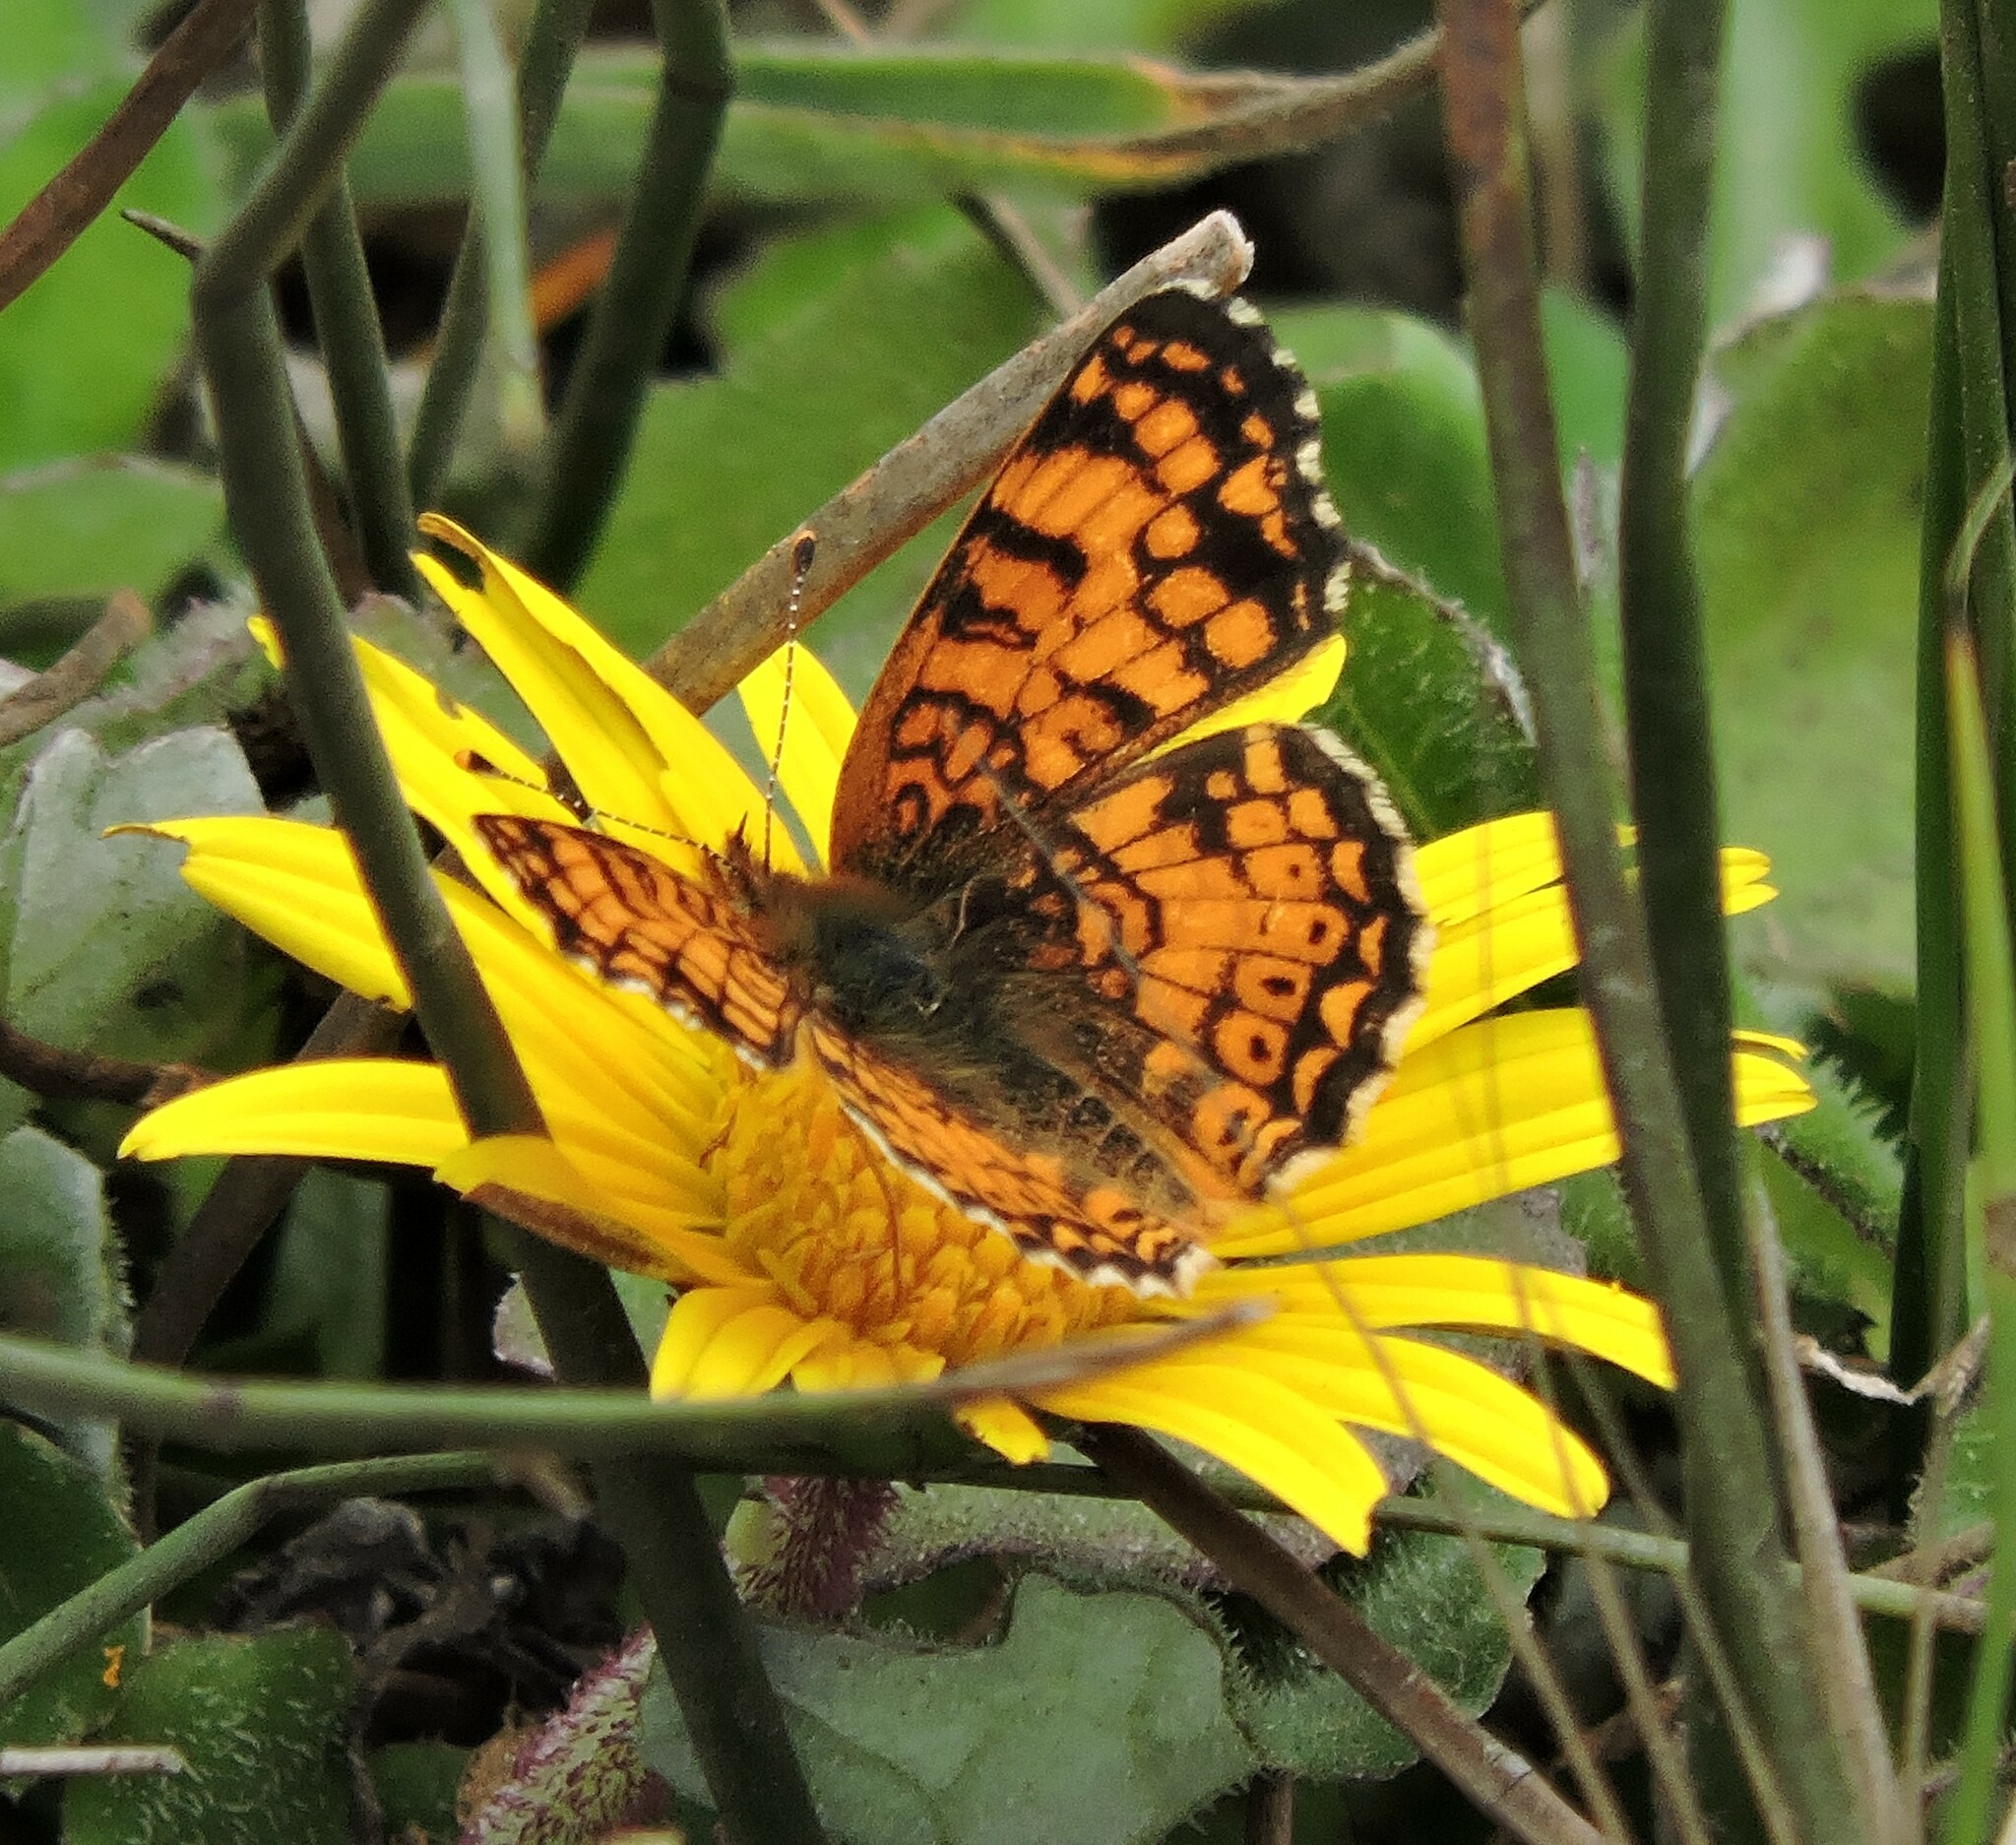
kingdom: Animalia
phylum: Arthropoda
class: Insecta
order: Lepidoptera
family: Nymphalidae
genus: Eresia
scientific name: Eresia aveyrona
